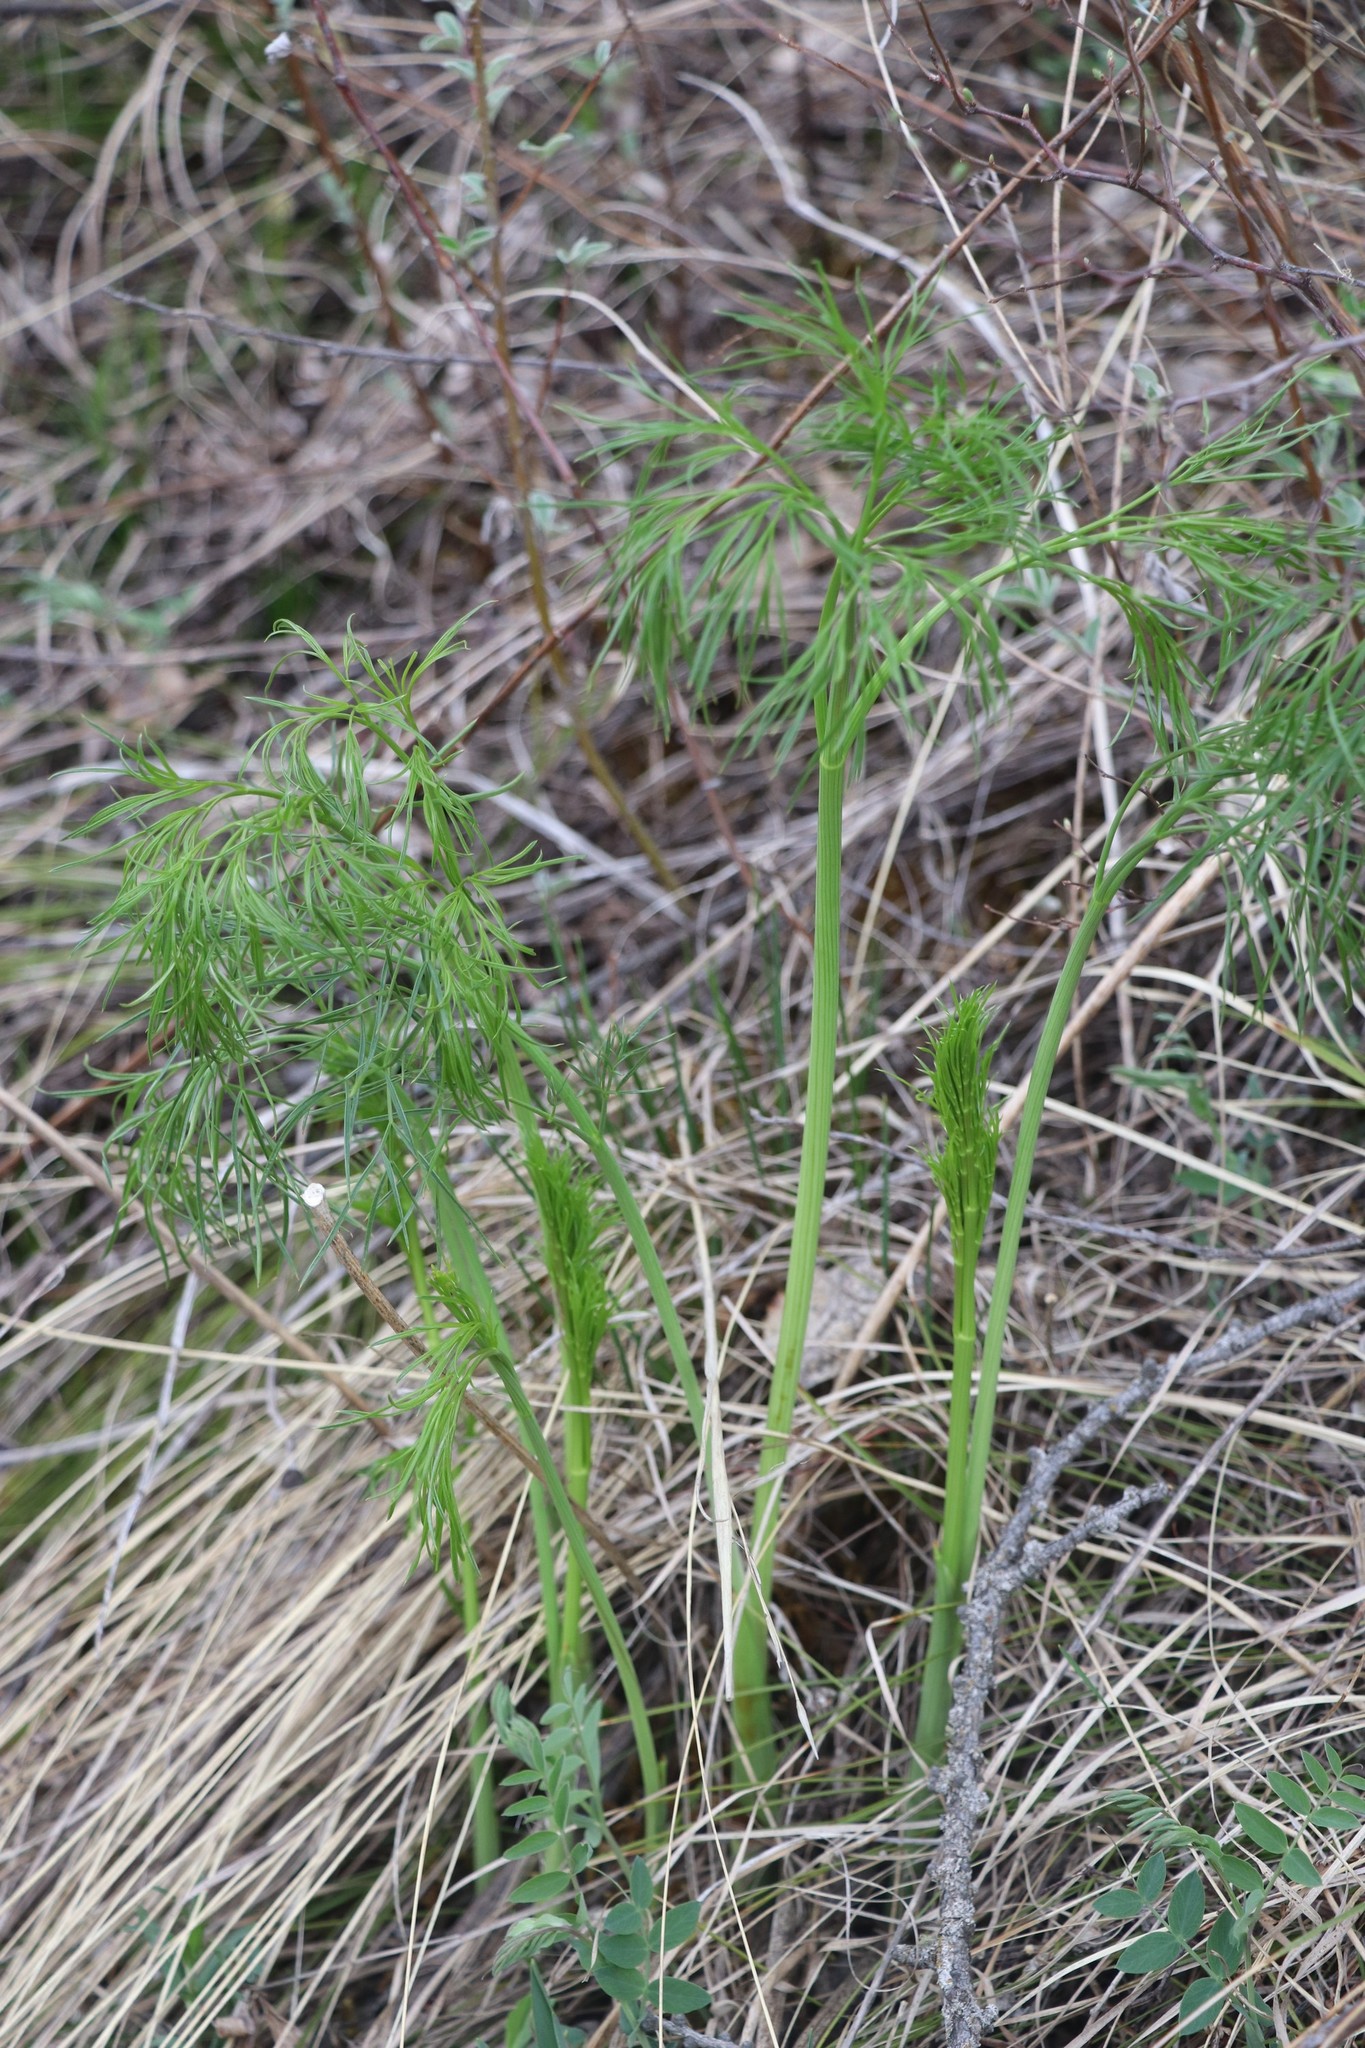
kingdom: Plantae
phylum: Tracheophyta
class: Magnoliopsida
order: Apiales
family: Apiaceae
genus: Peucedanum
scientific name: Peucedanum morisonii
